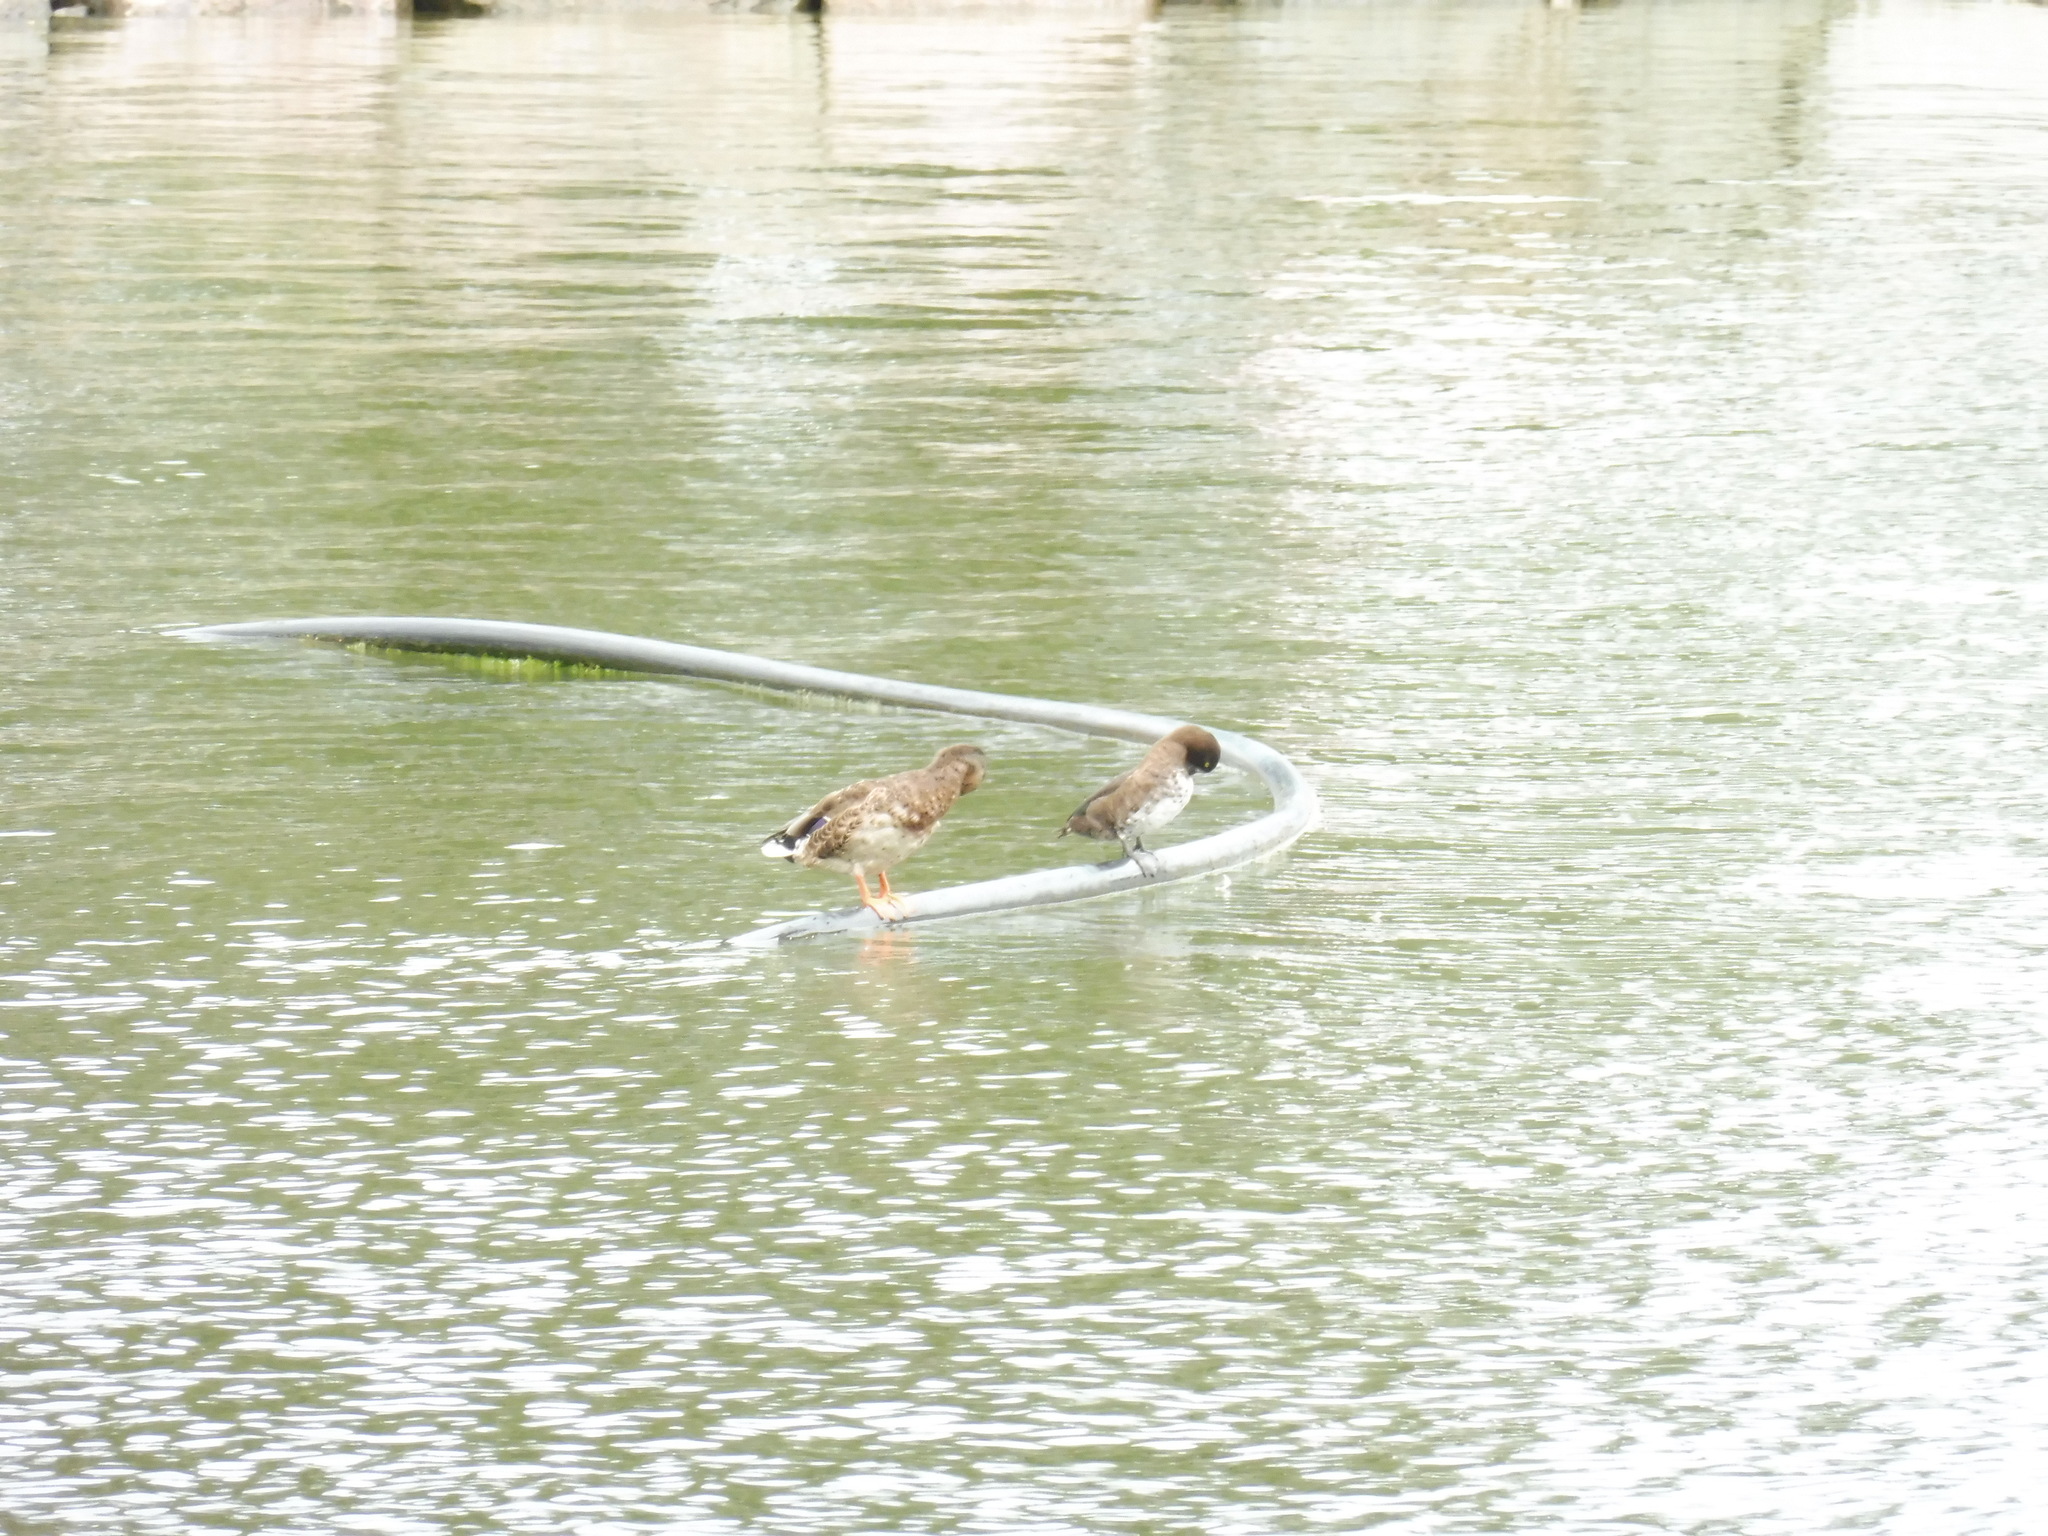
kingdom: Animalia
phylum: Chordata
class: Aves
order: Anseriformes
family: Anatidae
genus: Aythya
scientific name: Aythya fuligula
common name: Tufted duck
